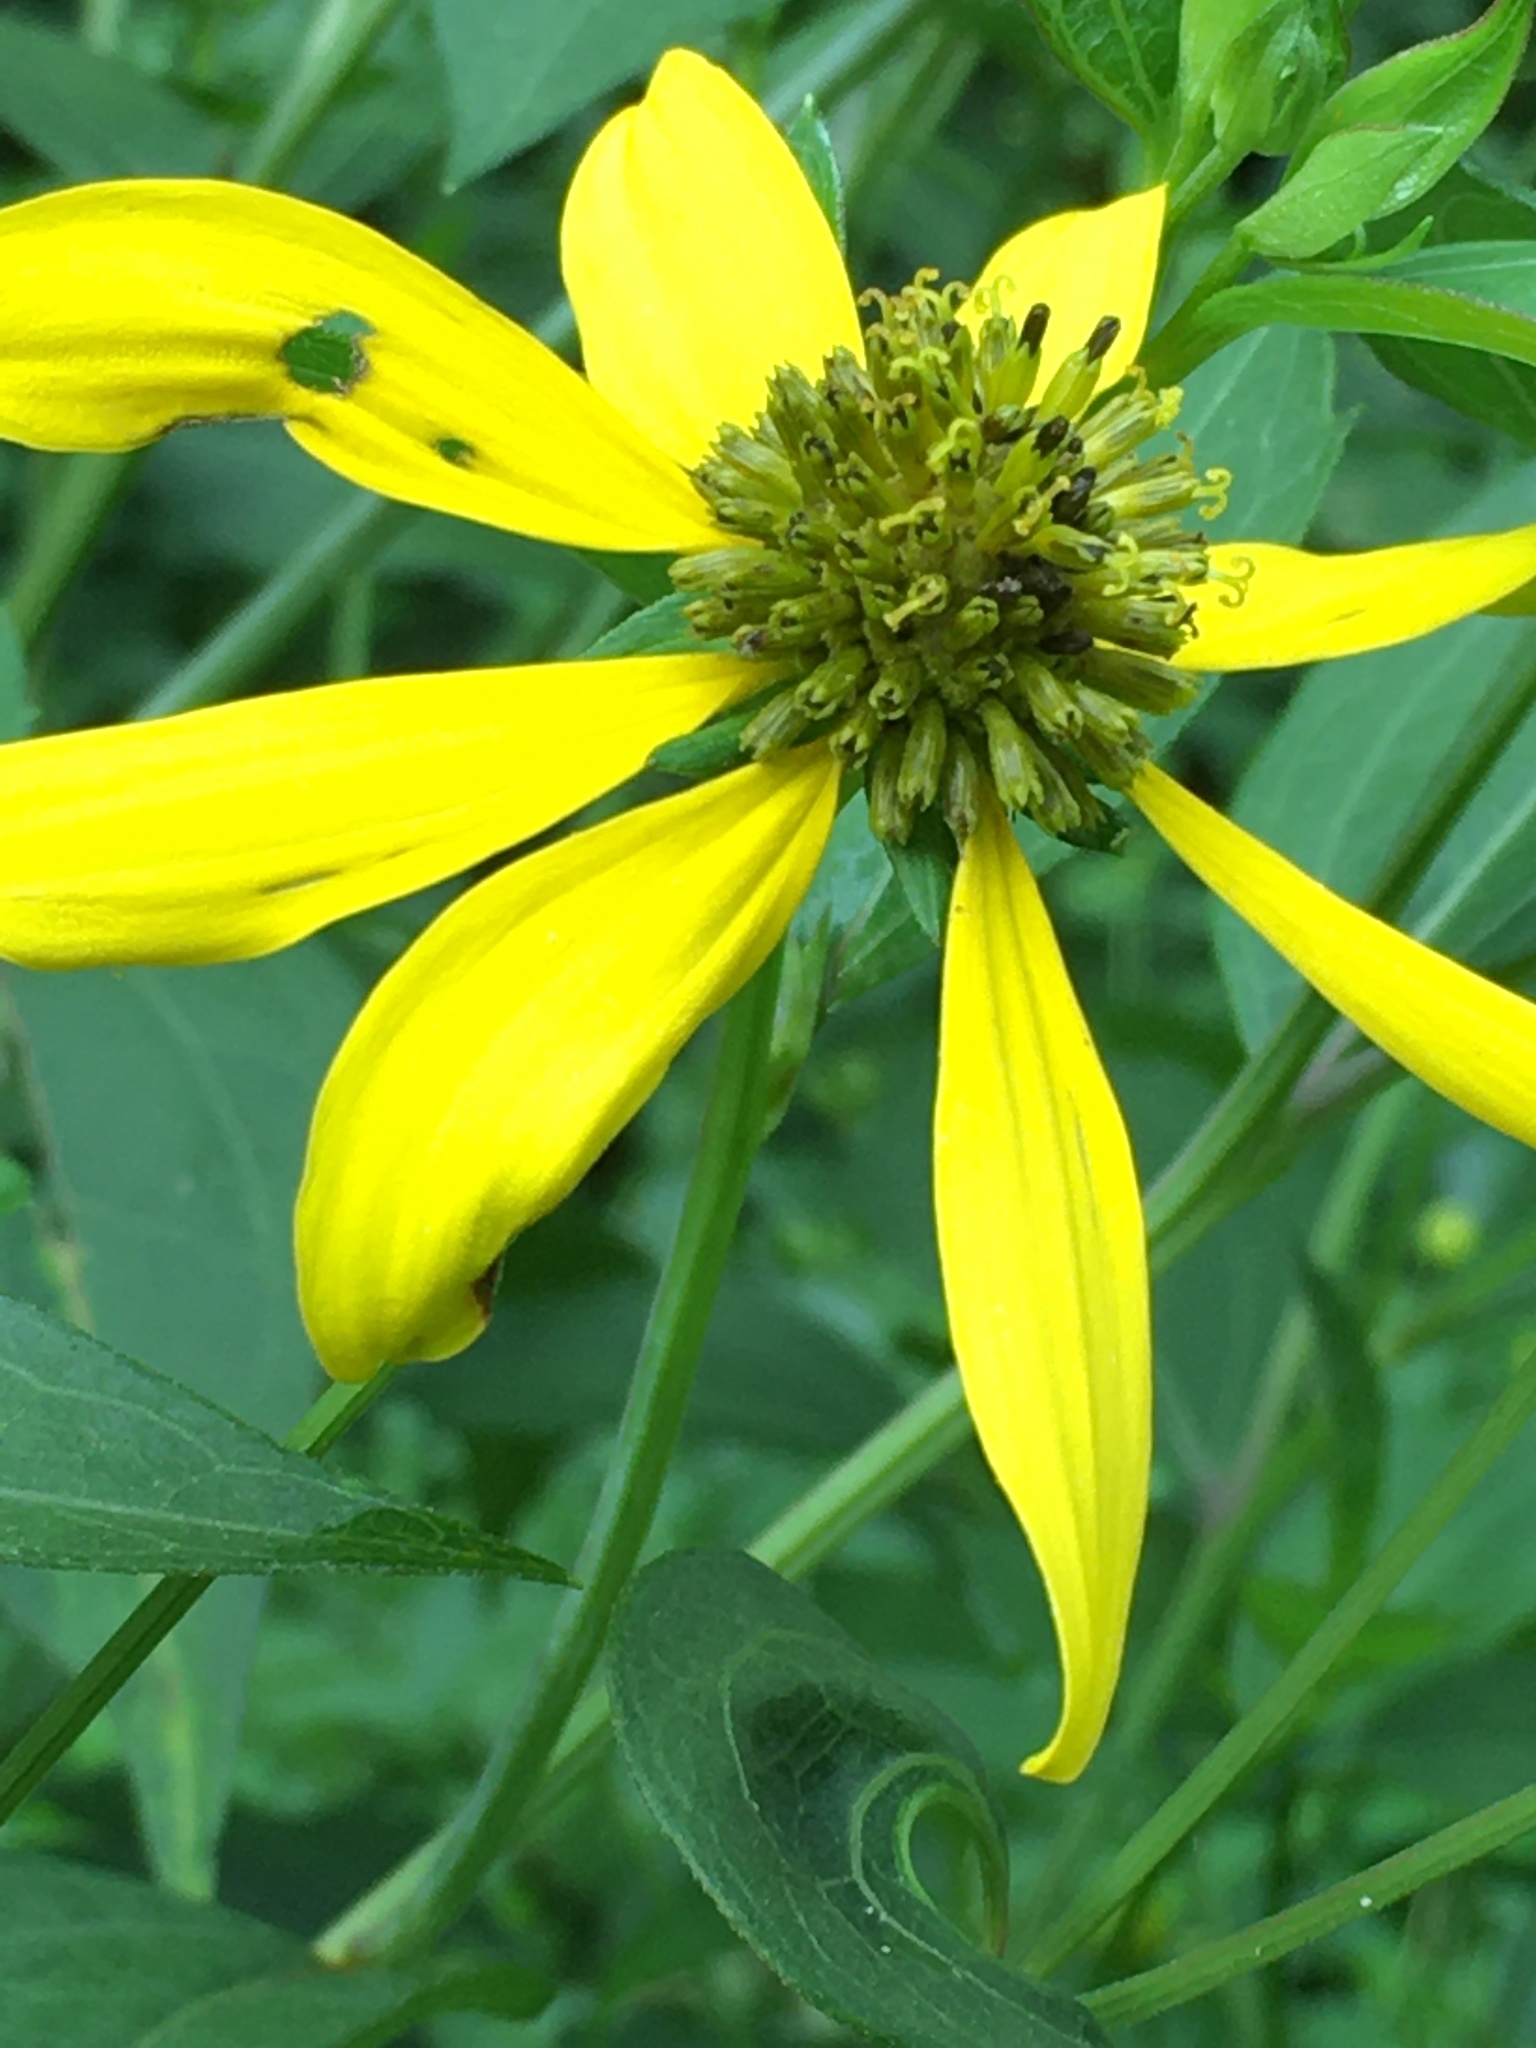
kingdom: Plantae
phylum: Tracheophyta
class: Magnoliopsida
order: Asterales
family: Asteraceae
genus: Rudbeckia
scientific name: Rudbeckia laciniata
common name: Coneflower
